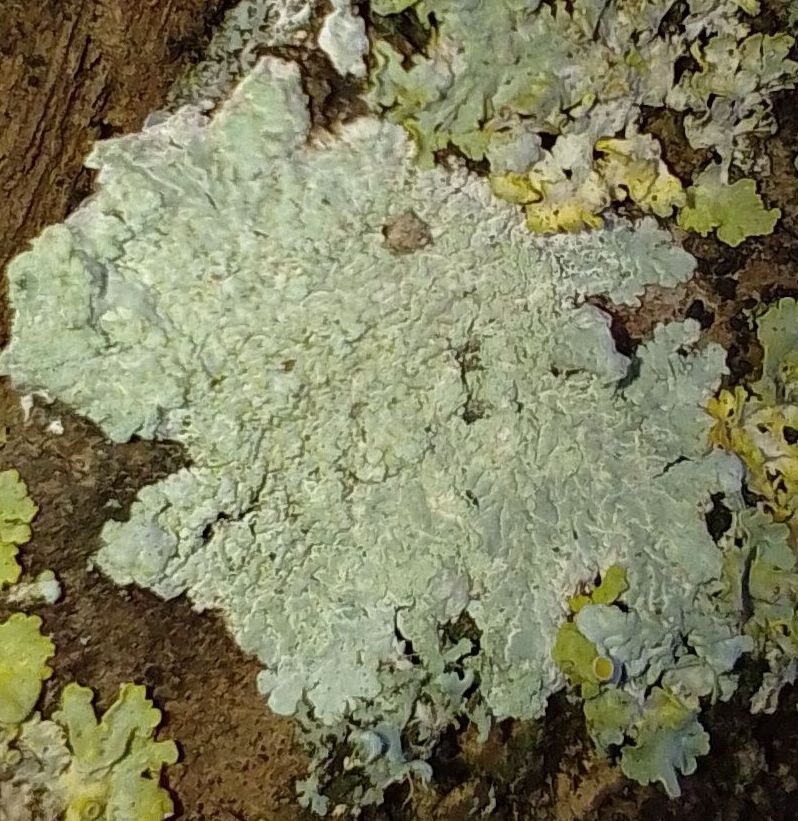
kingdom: Fungi
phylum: Ascomycota
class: Lecanoromycetes
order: Caliciales
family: Caliciaceae
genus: Diploicia
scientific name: Diploicia canescens
